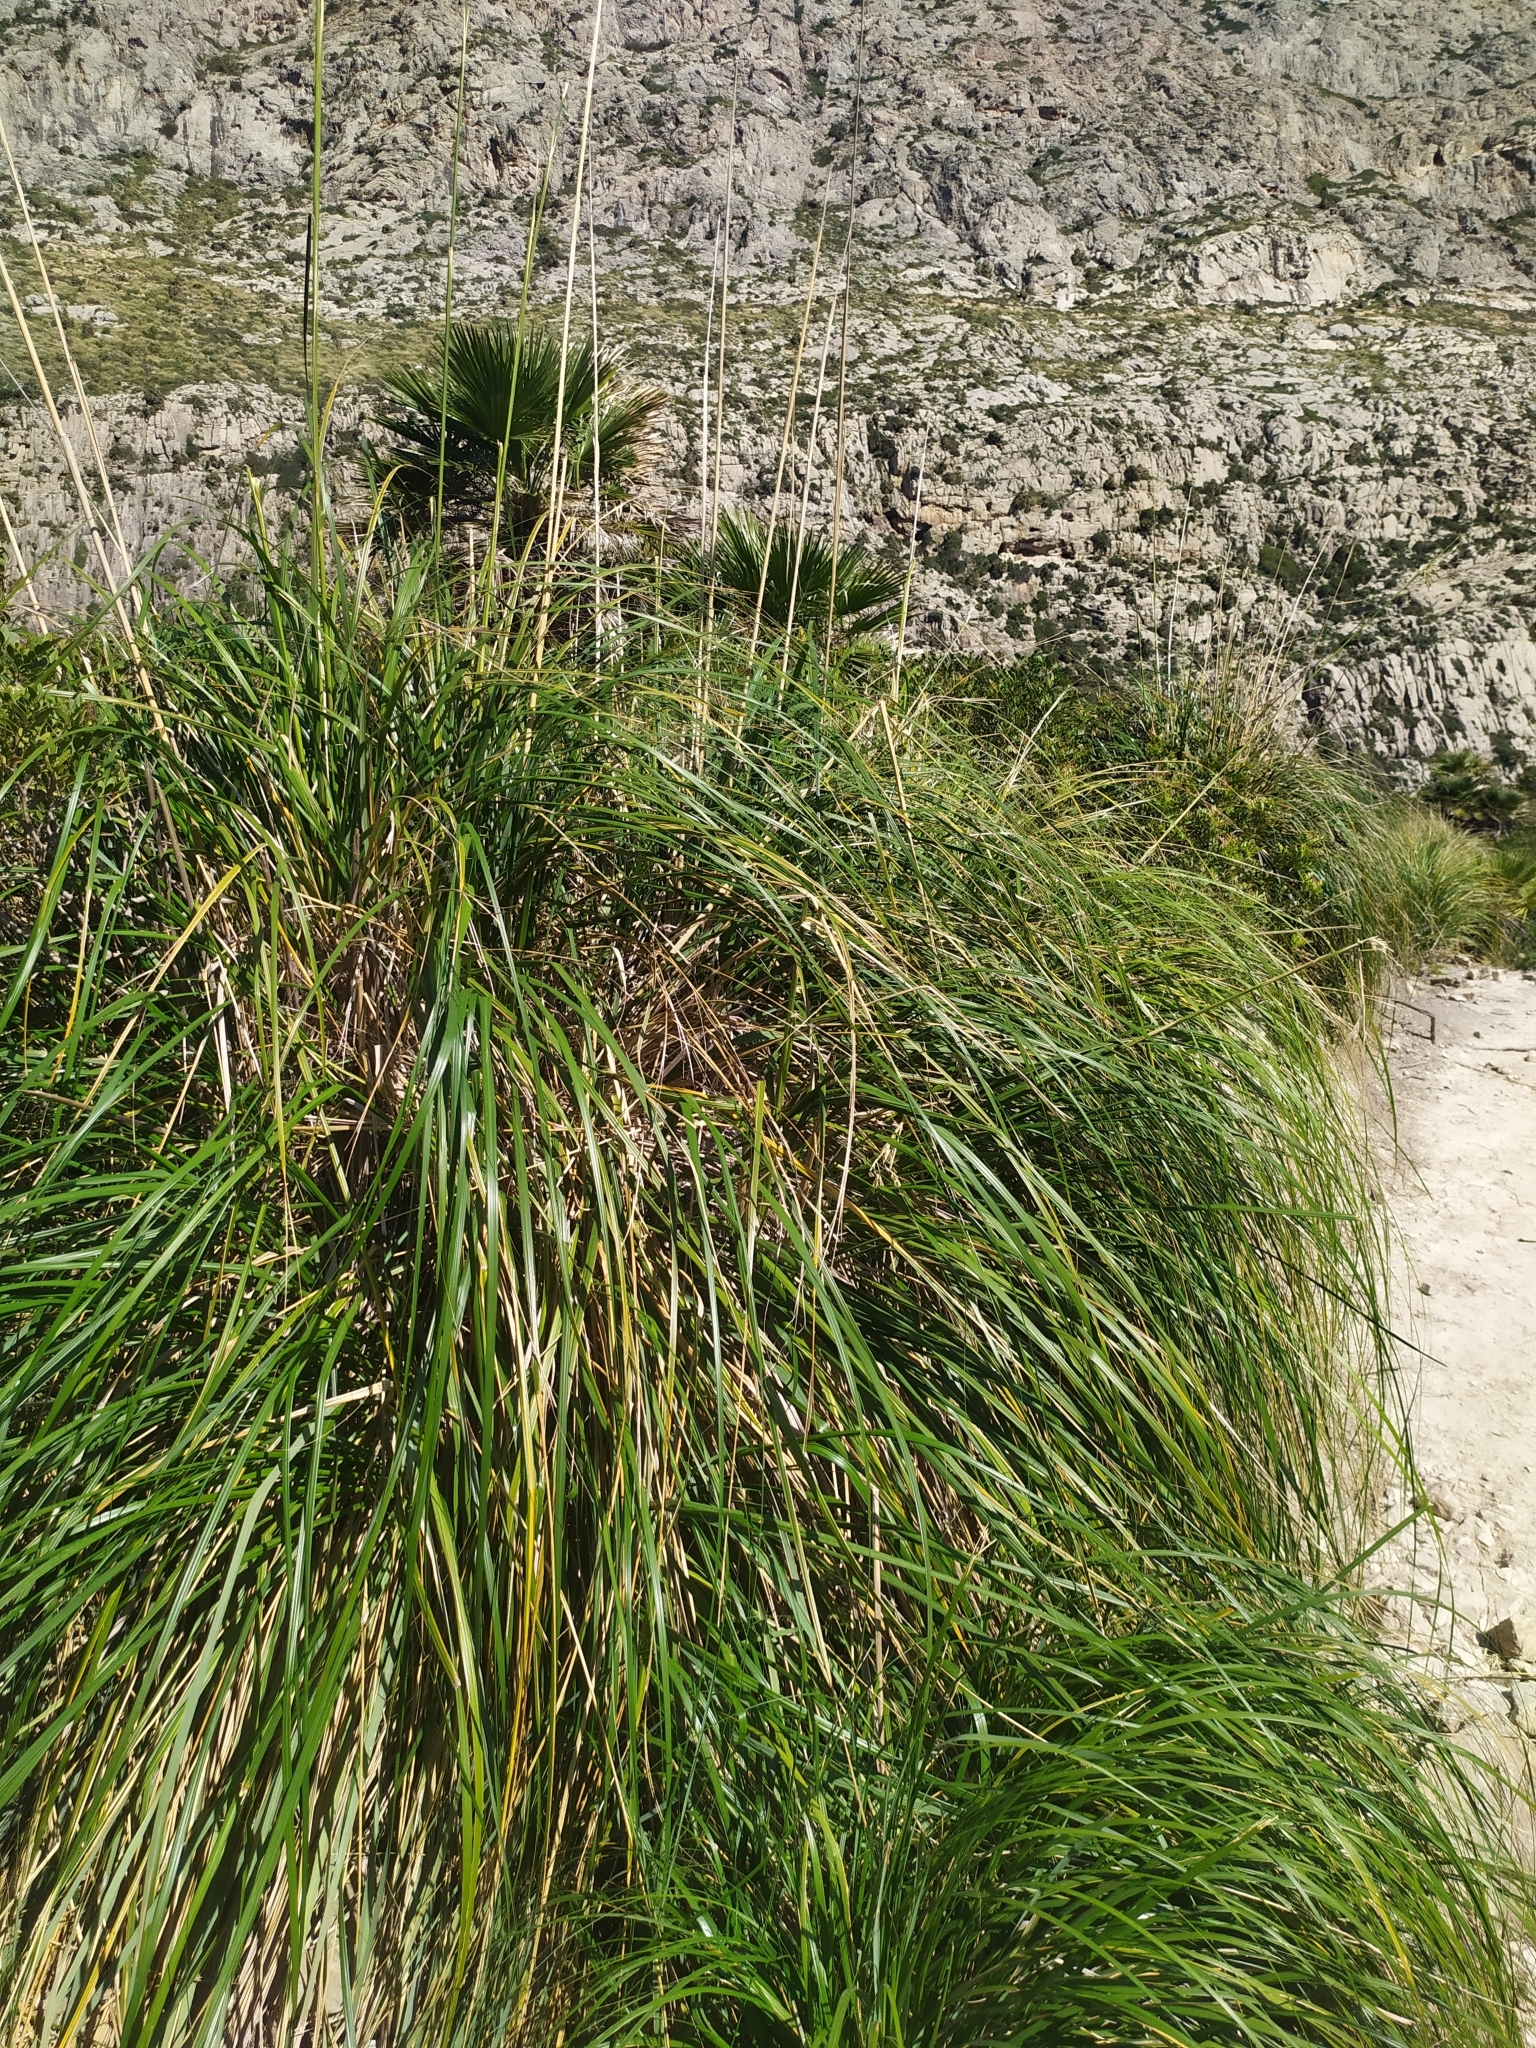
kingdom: Plantae
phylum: Tracheophyta
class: Liliopsida
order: Poales
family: Poaceae
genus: Ampelodesmos
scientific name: Ampelodesmos mauritanicus
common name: Mauritanian grass
